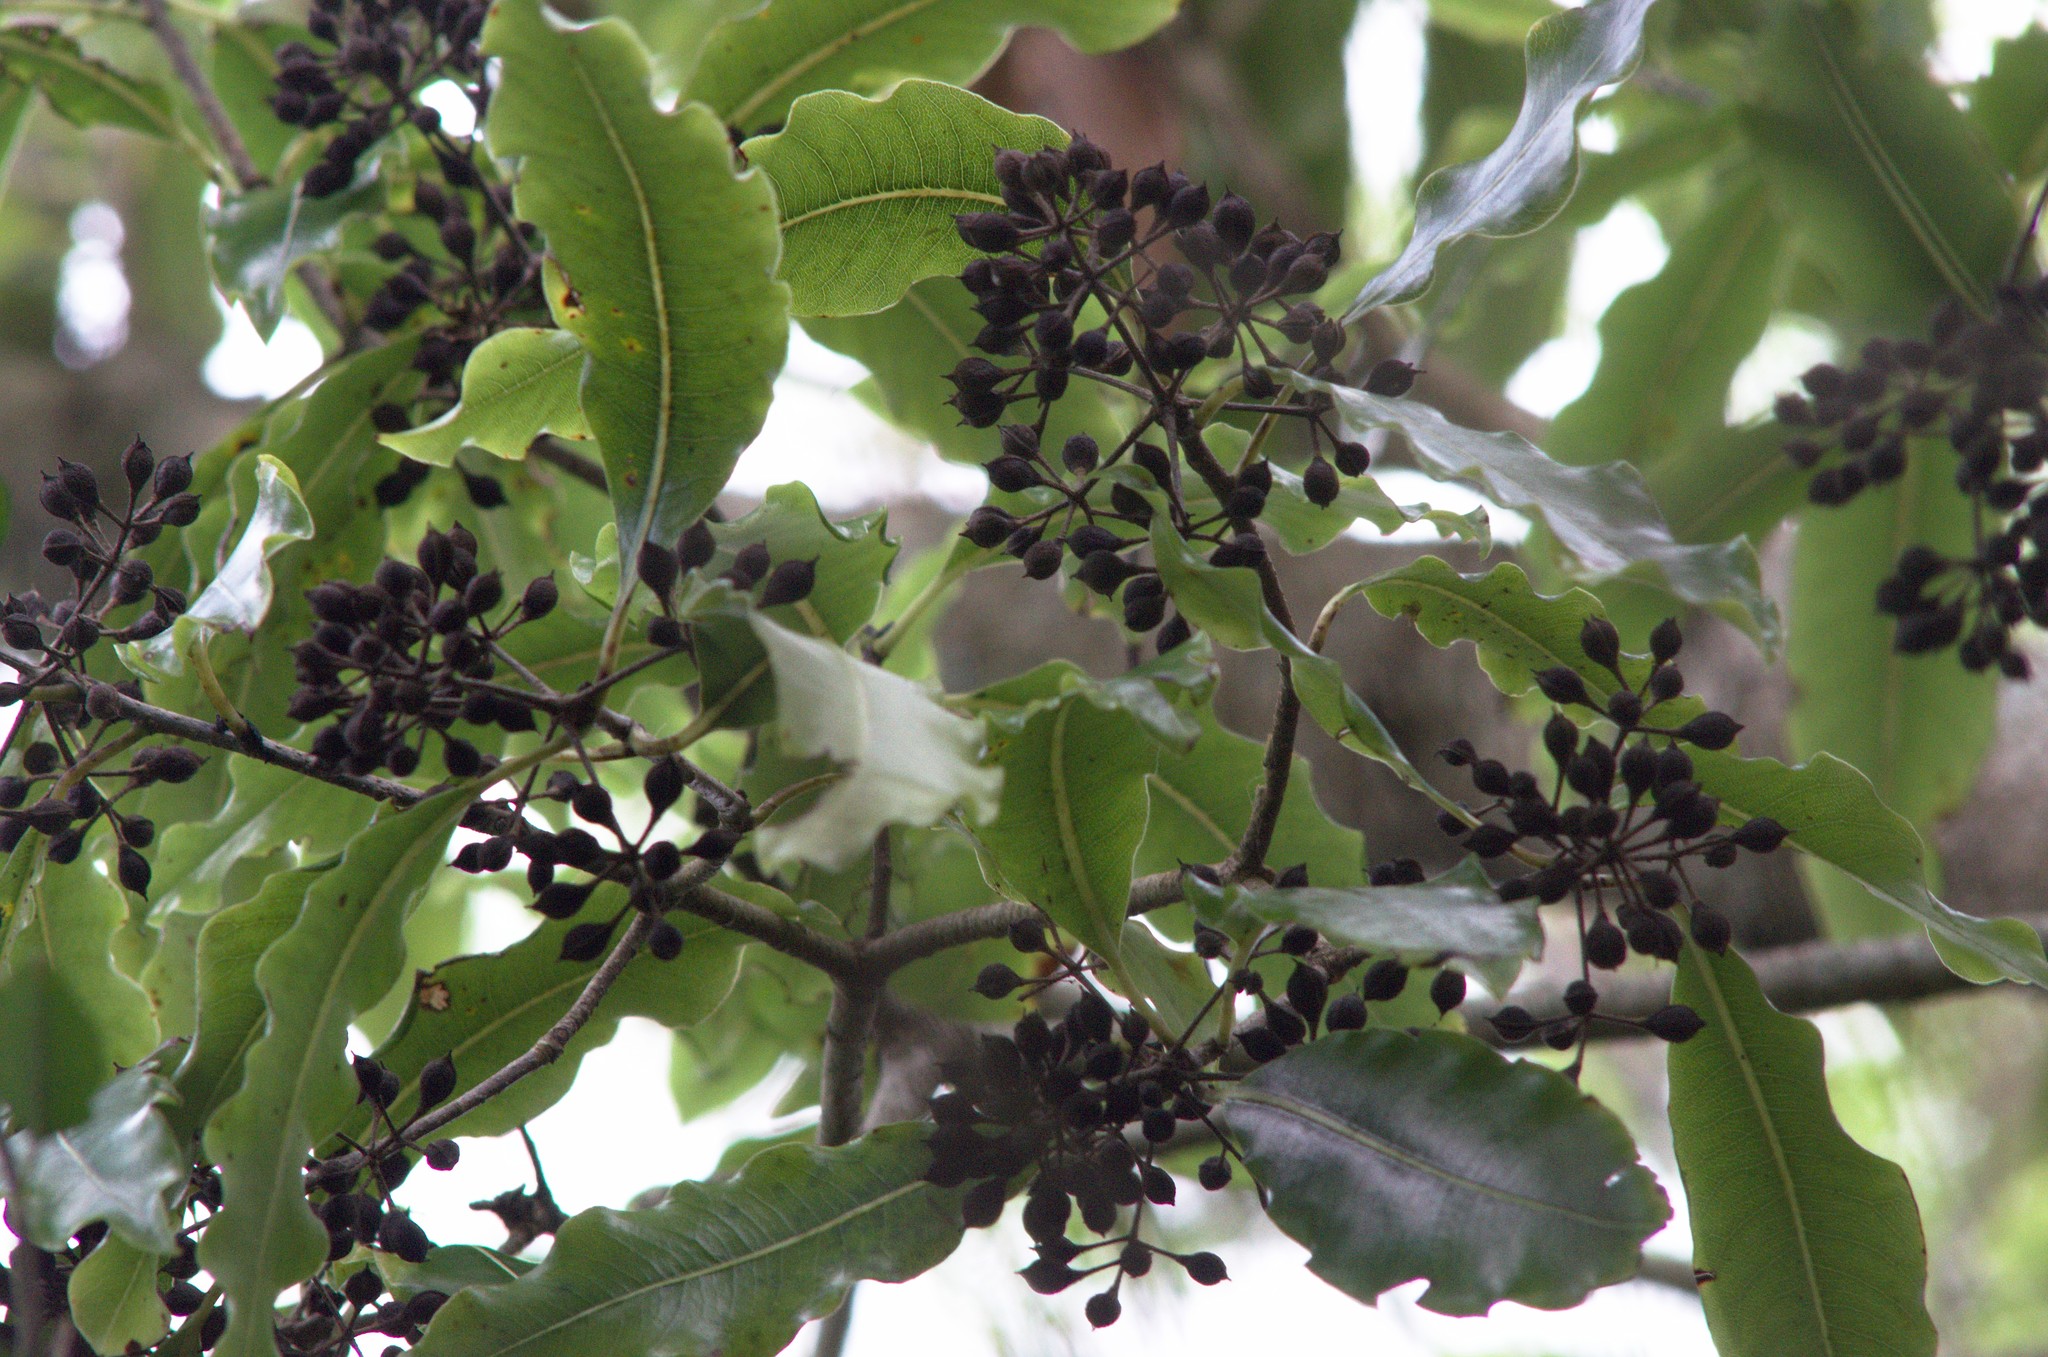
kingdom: Plantae
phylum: Tracheophyta
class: Magnoliopsida
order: Apiales
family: Pittosporaceae
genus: Pittosporum
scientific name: Pittosporum eugenioides
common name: Lemonwood
